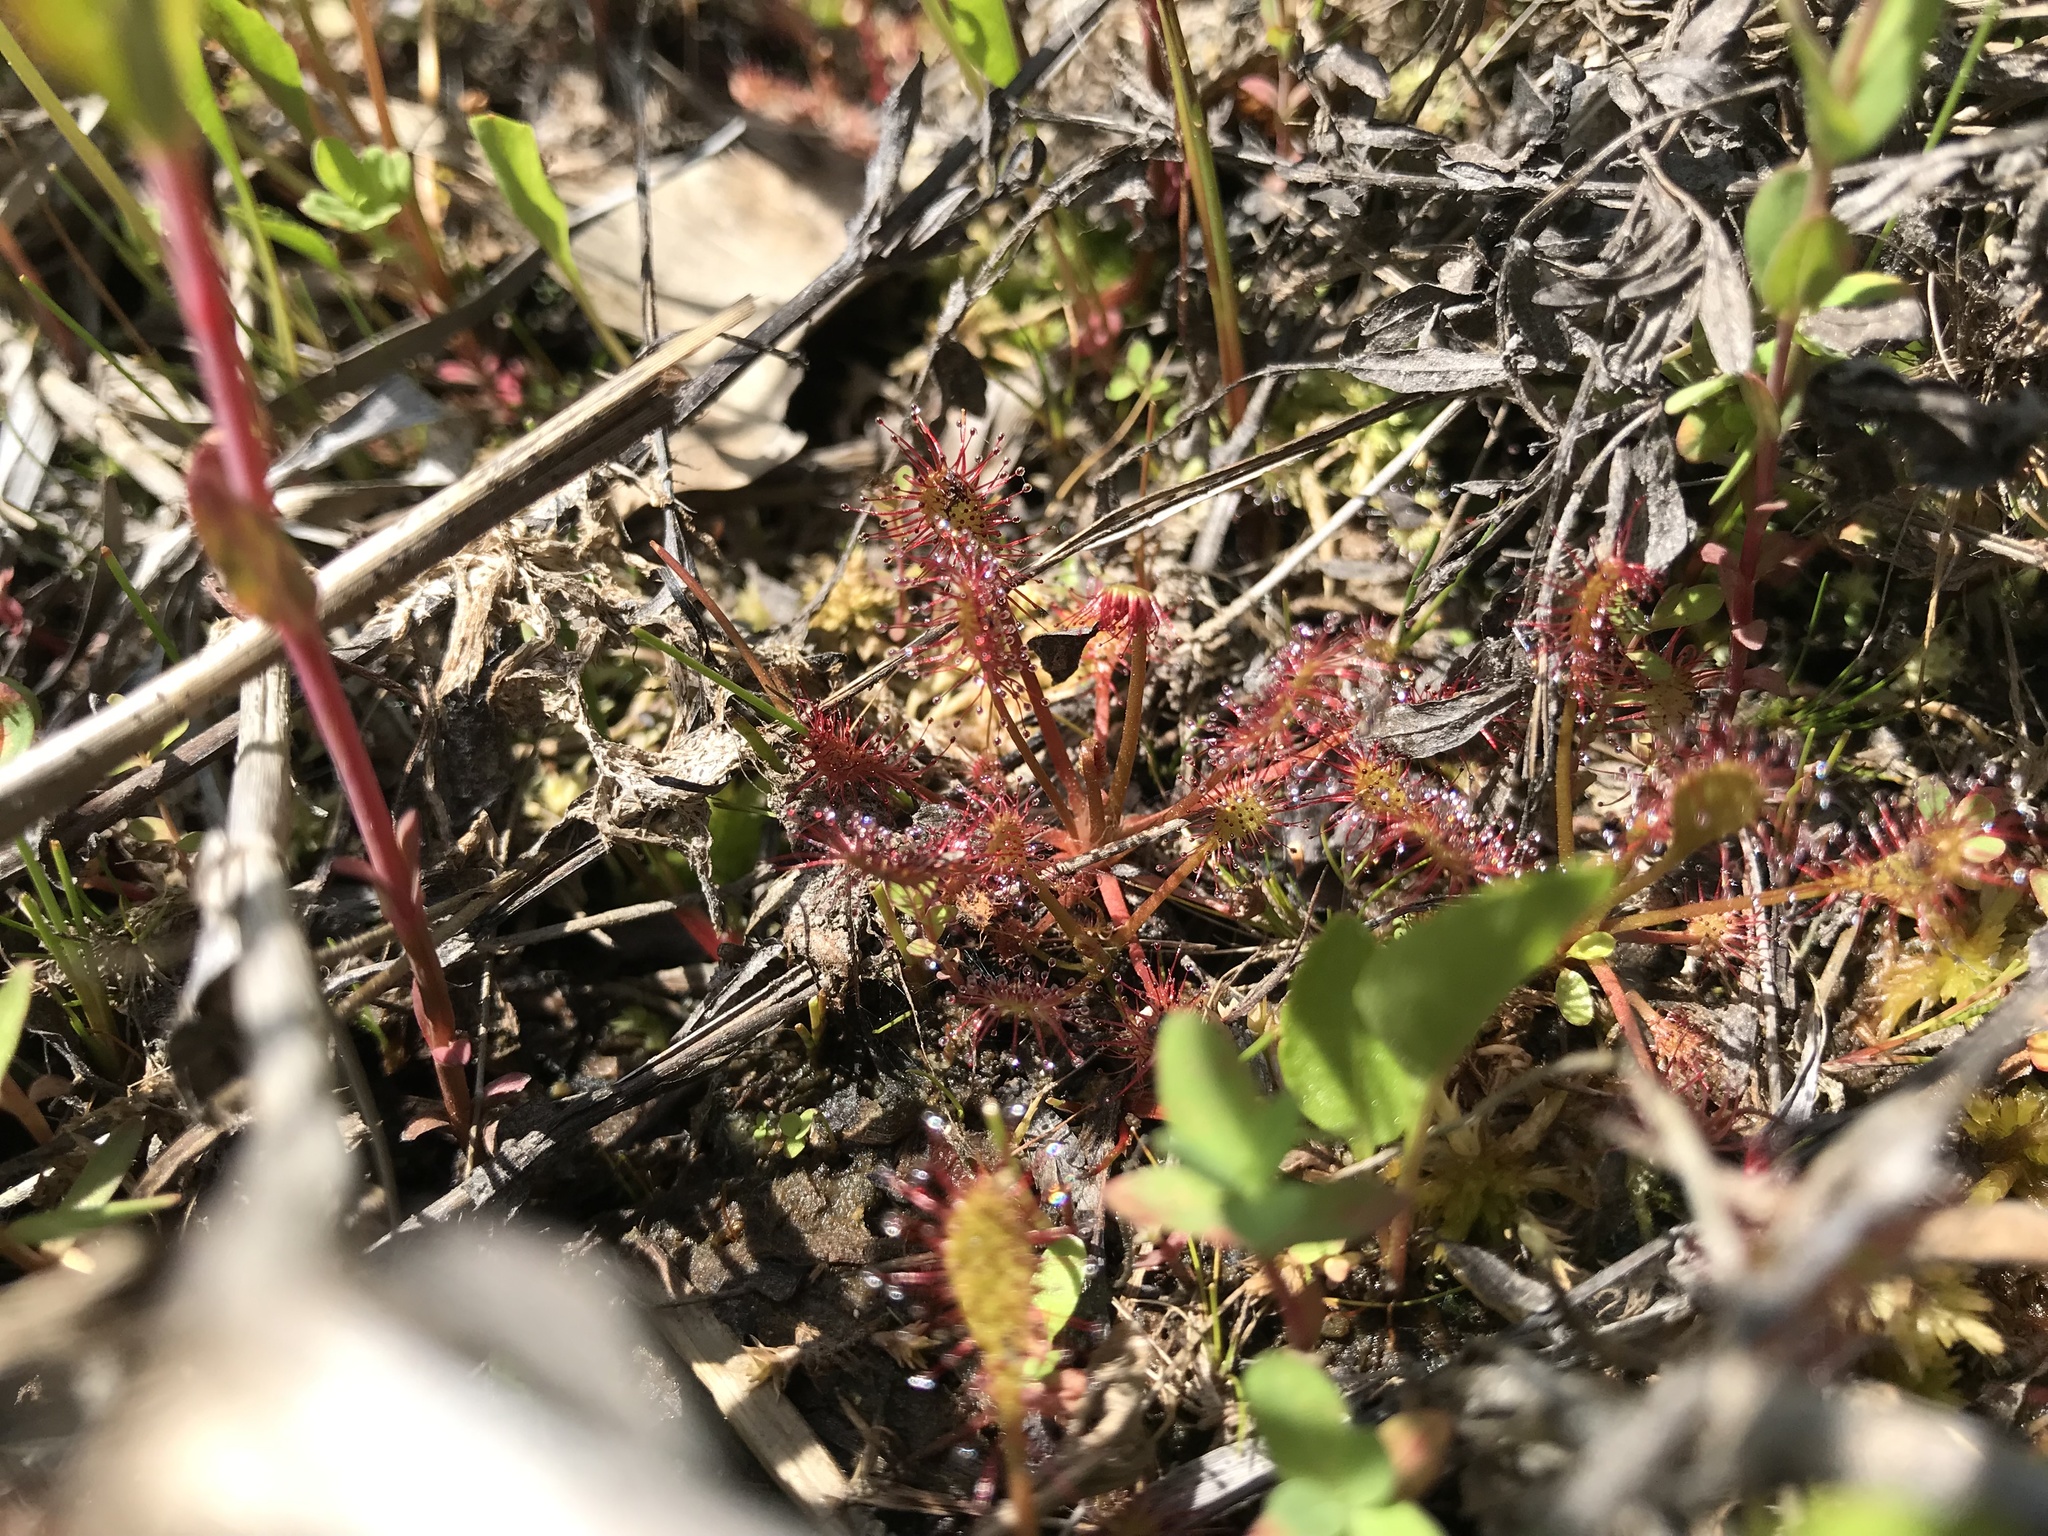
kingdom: Plantae
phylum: Tracheophyta
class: Magnoliopsida
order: Caryophyllales
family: Droseraceae
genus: Drosera
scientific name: Drosera intermedia
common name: Oblong-leaved sundew
